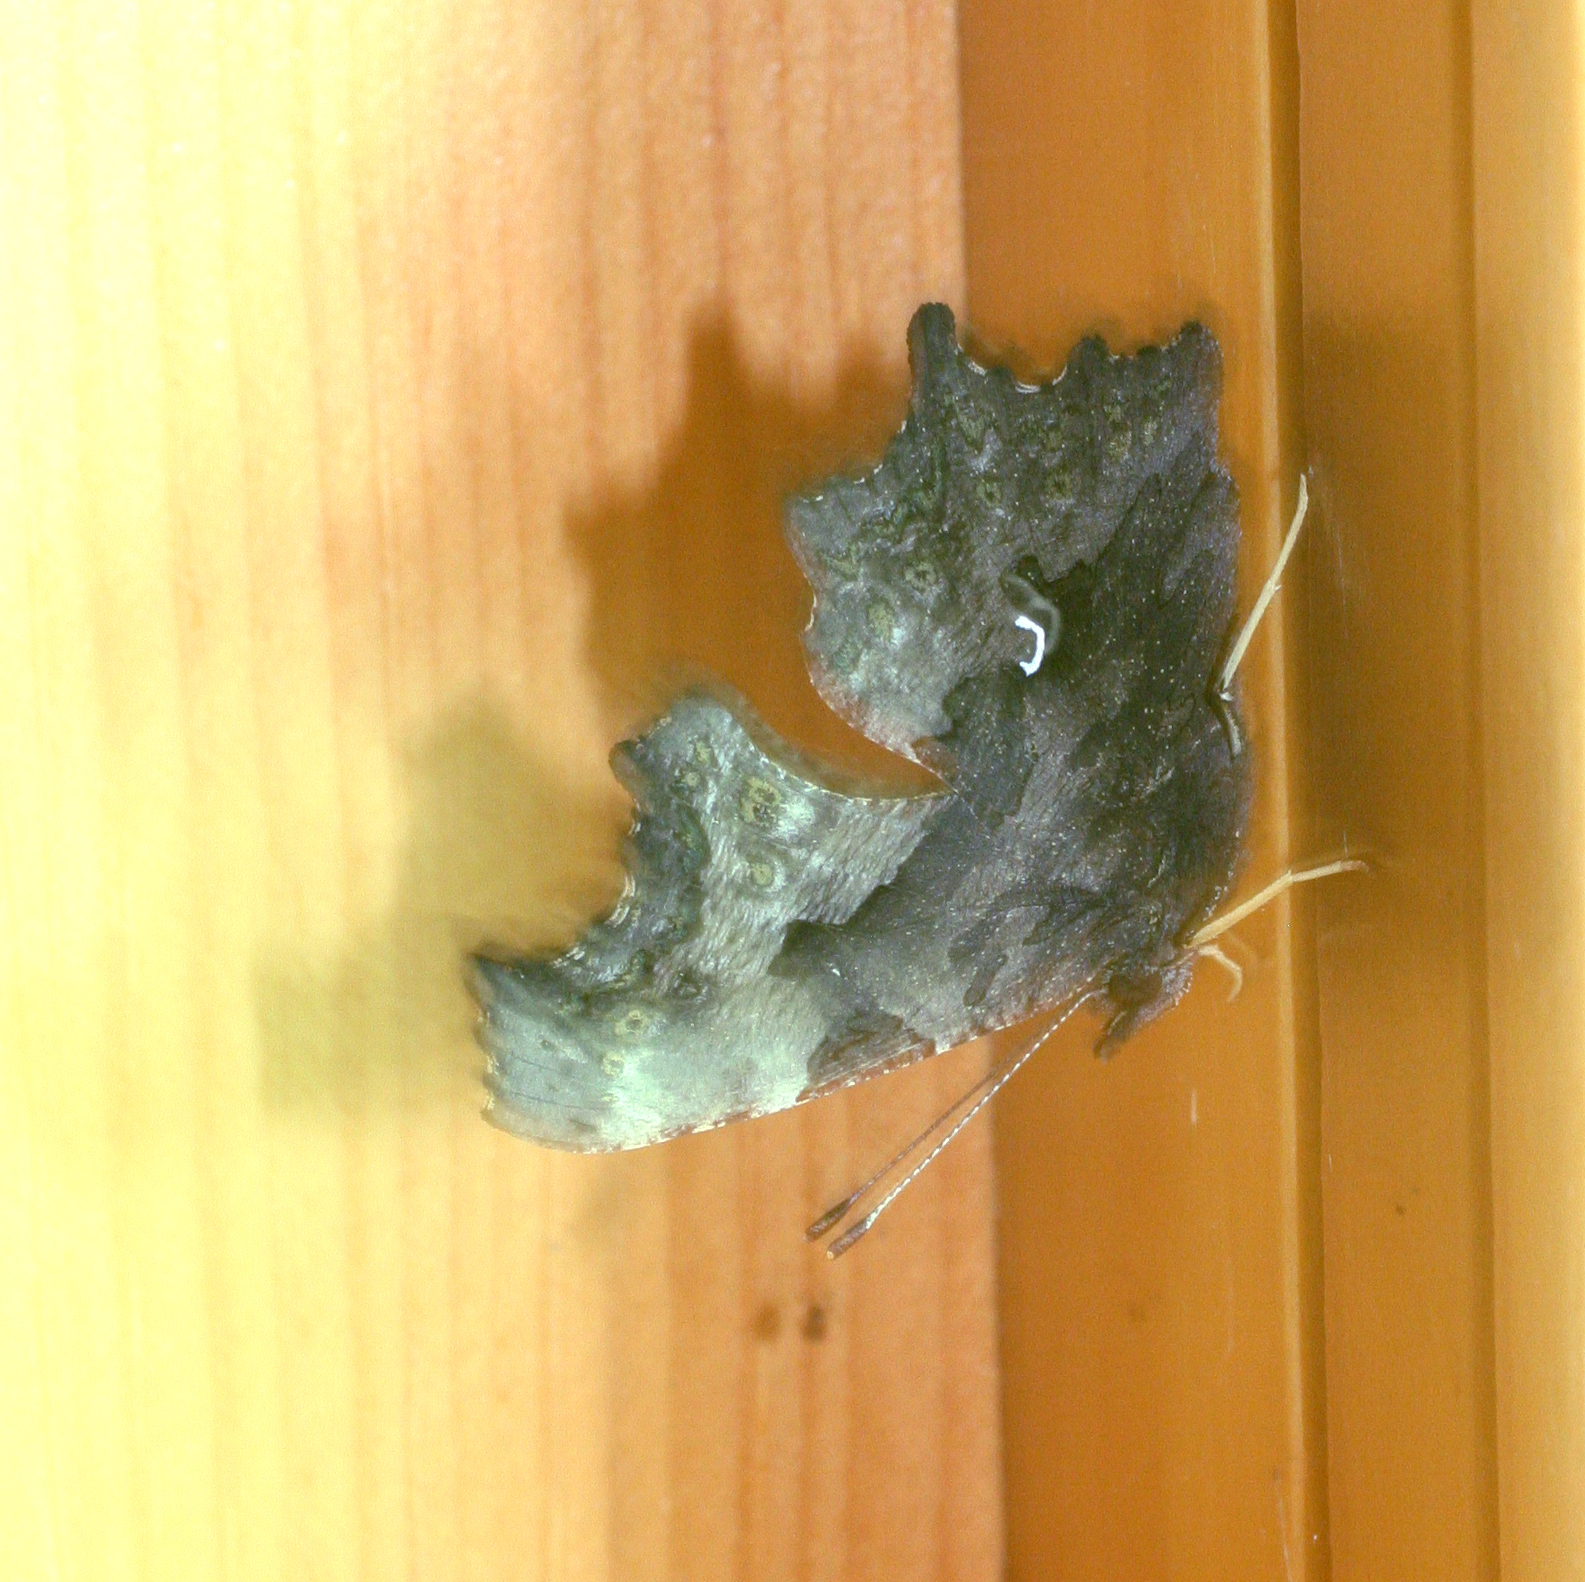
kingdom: Animalia
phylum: Arthropoda
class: Insecta
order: Lepidoptera
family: Nymphalidae
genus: Polygonia
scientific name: Polygonia c-album
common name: Comma
